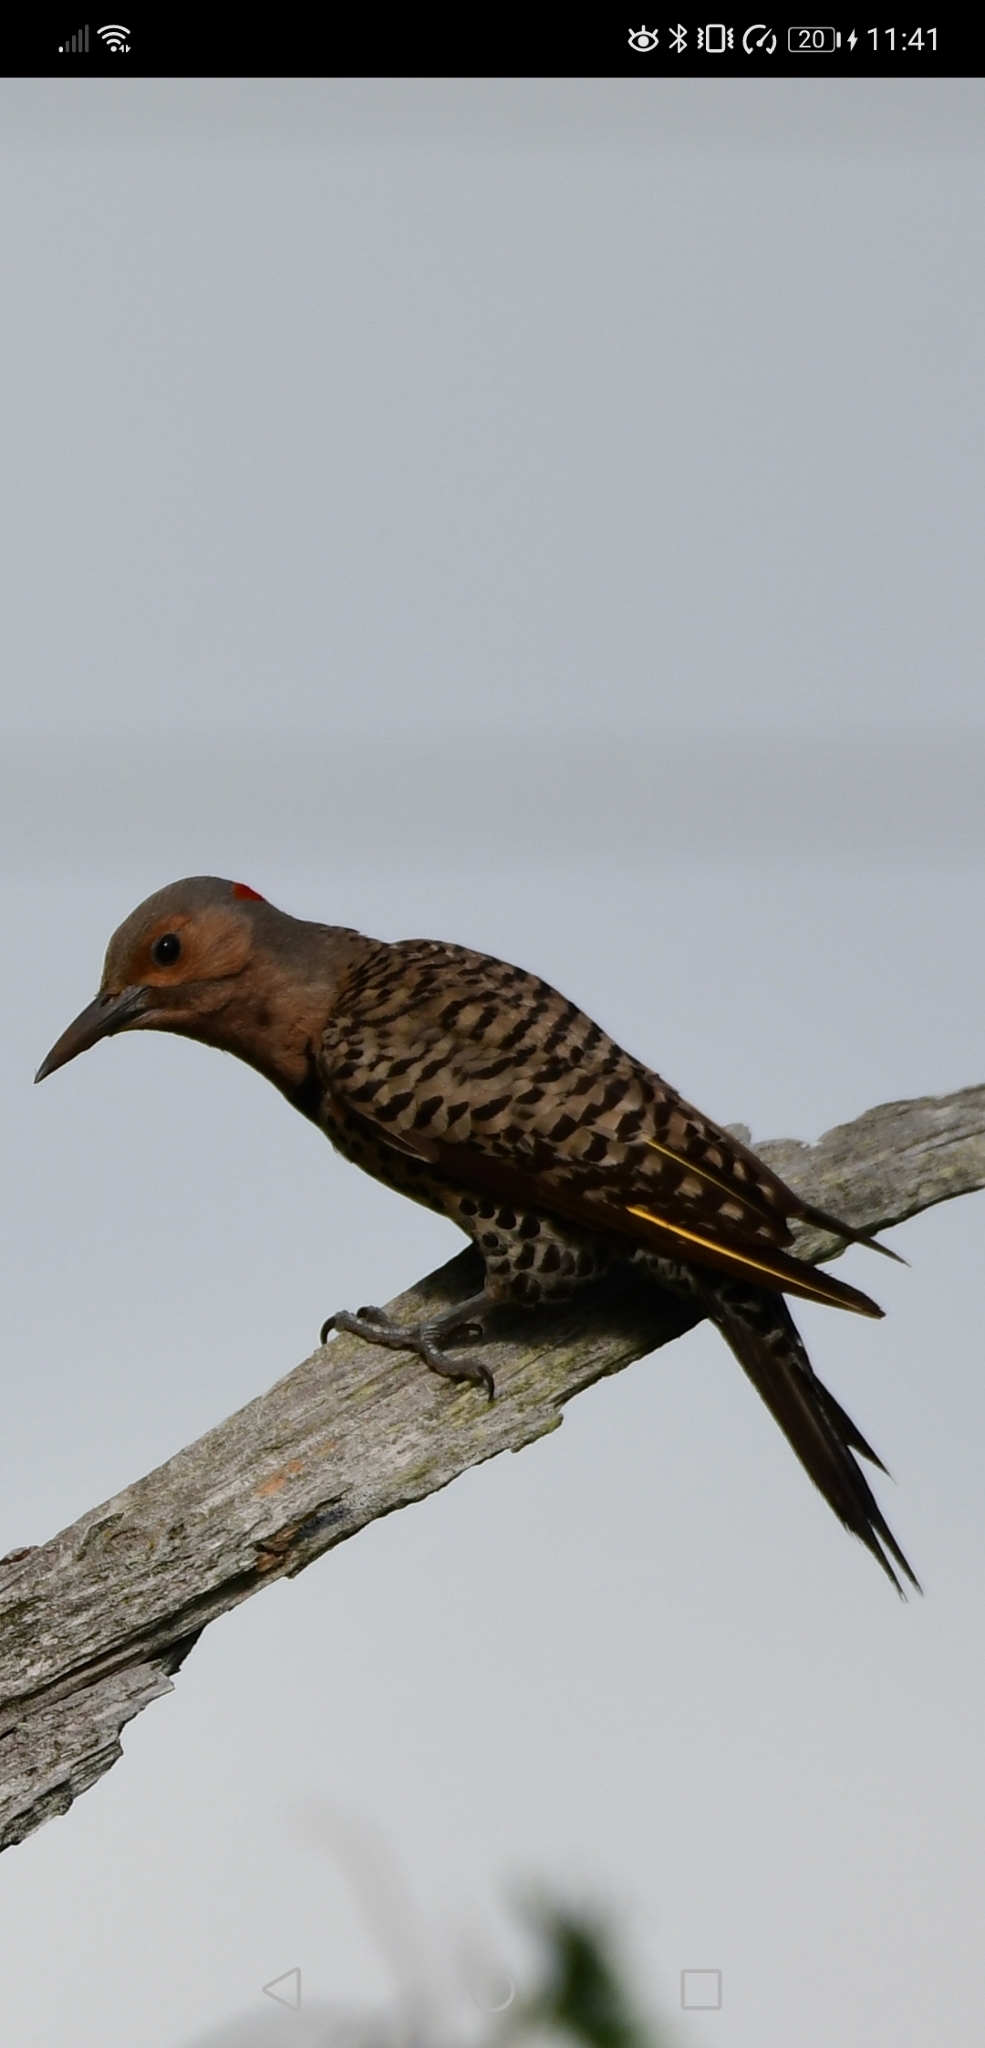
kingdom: Animalia
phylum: Chordata
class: Aves
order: Piciformes
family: Picidae
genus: Colaptes
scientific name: Colaptes auratus
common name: Northern flicker
